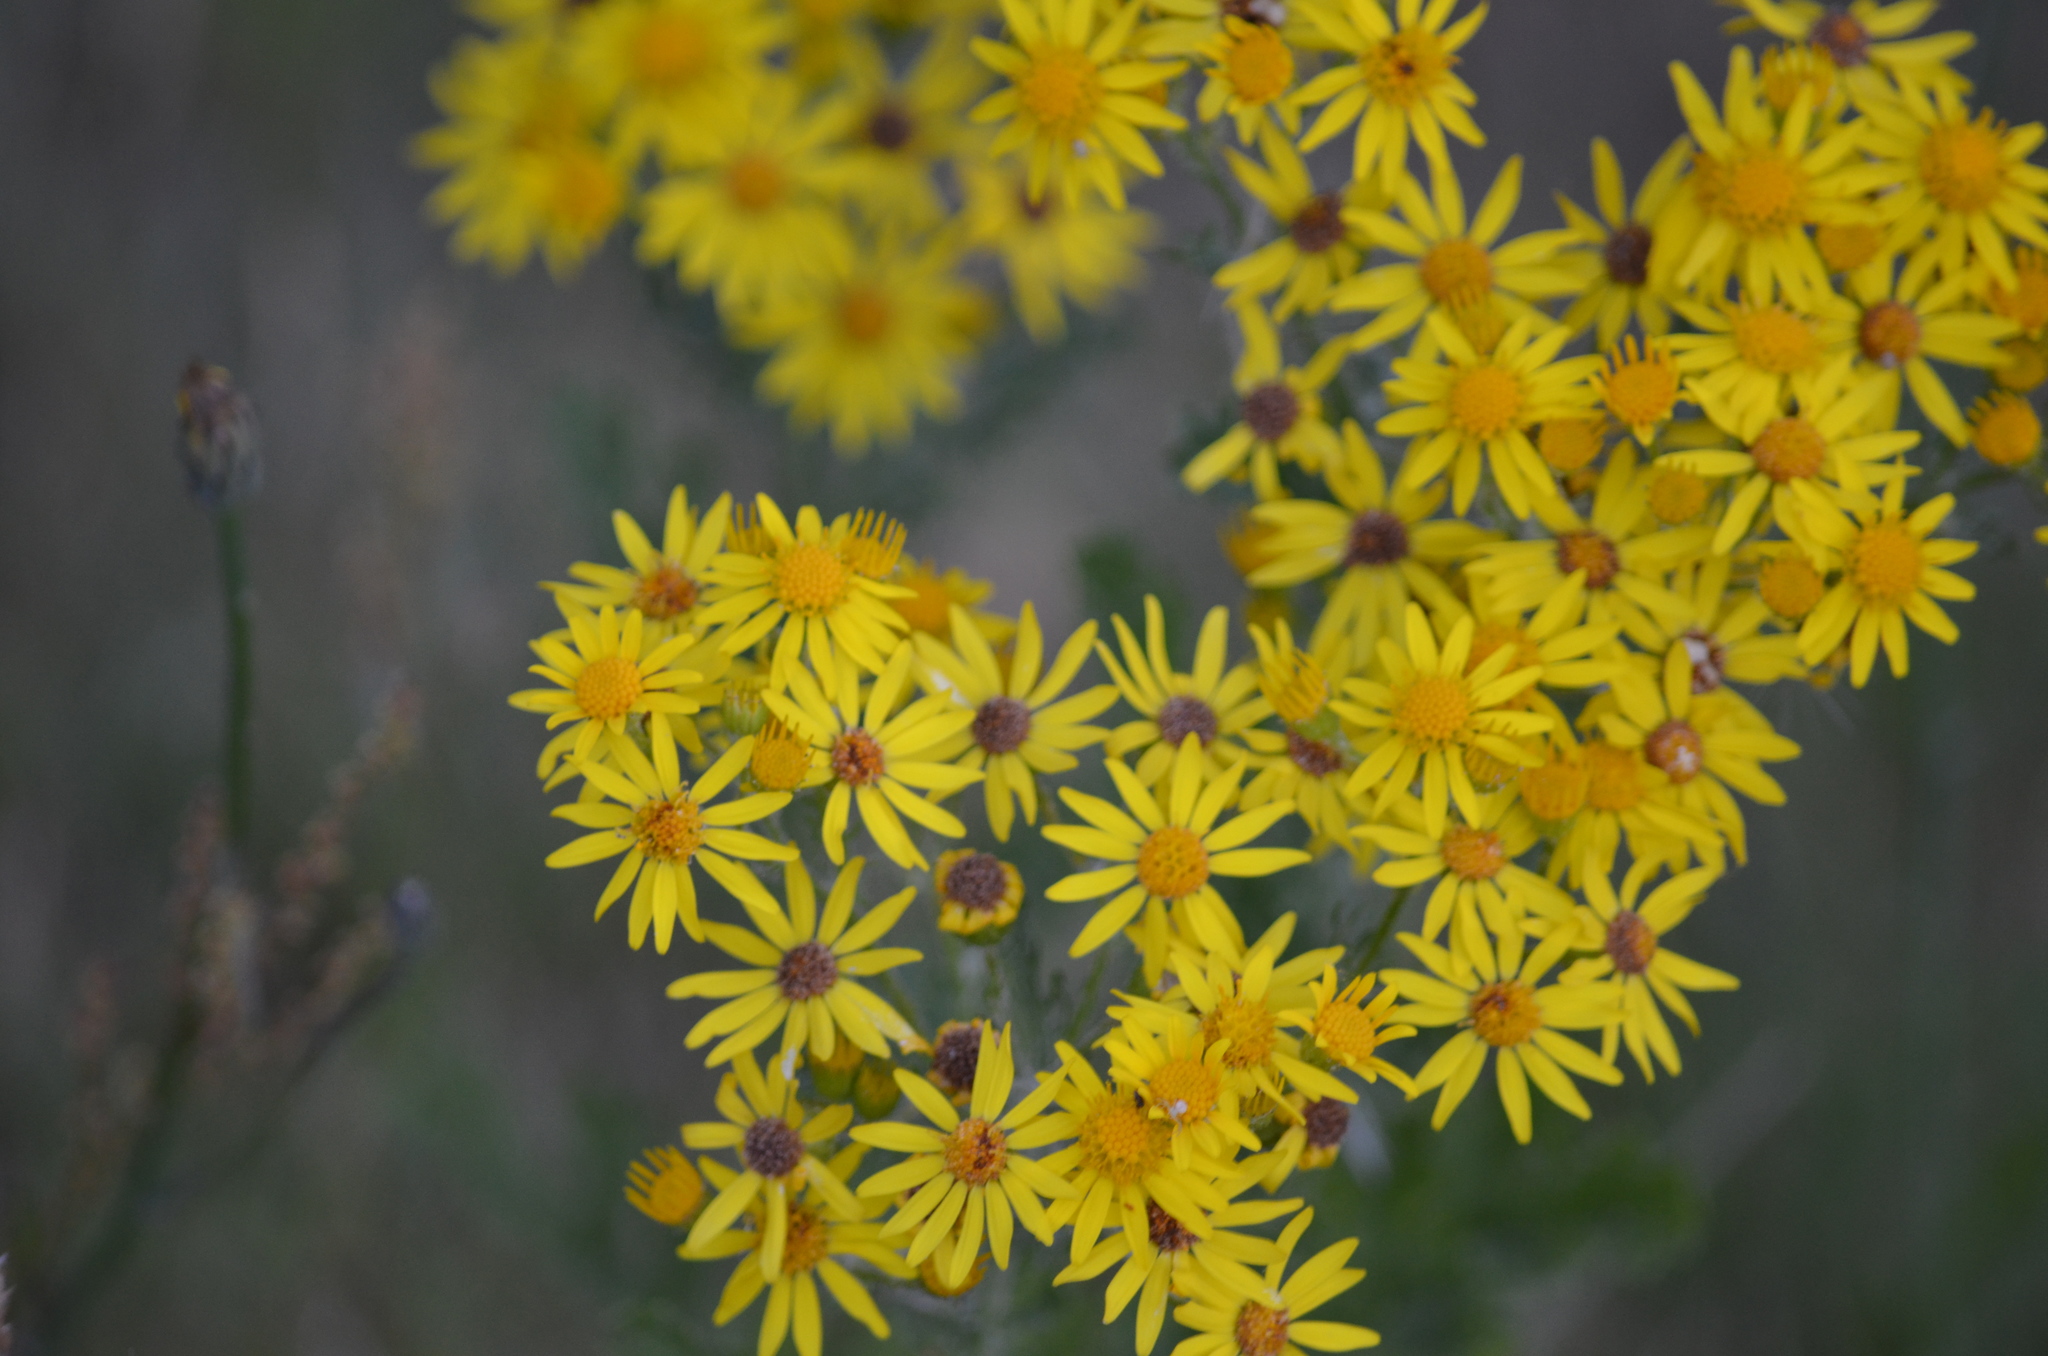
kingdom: Plantae
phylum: Tracheophyta
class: Magnoliopsida
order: Asterales
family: Asteraceae
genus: Jacobaea
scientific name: Jacobaea vulgaris
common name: Stinking willie
